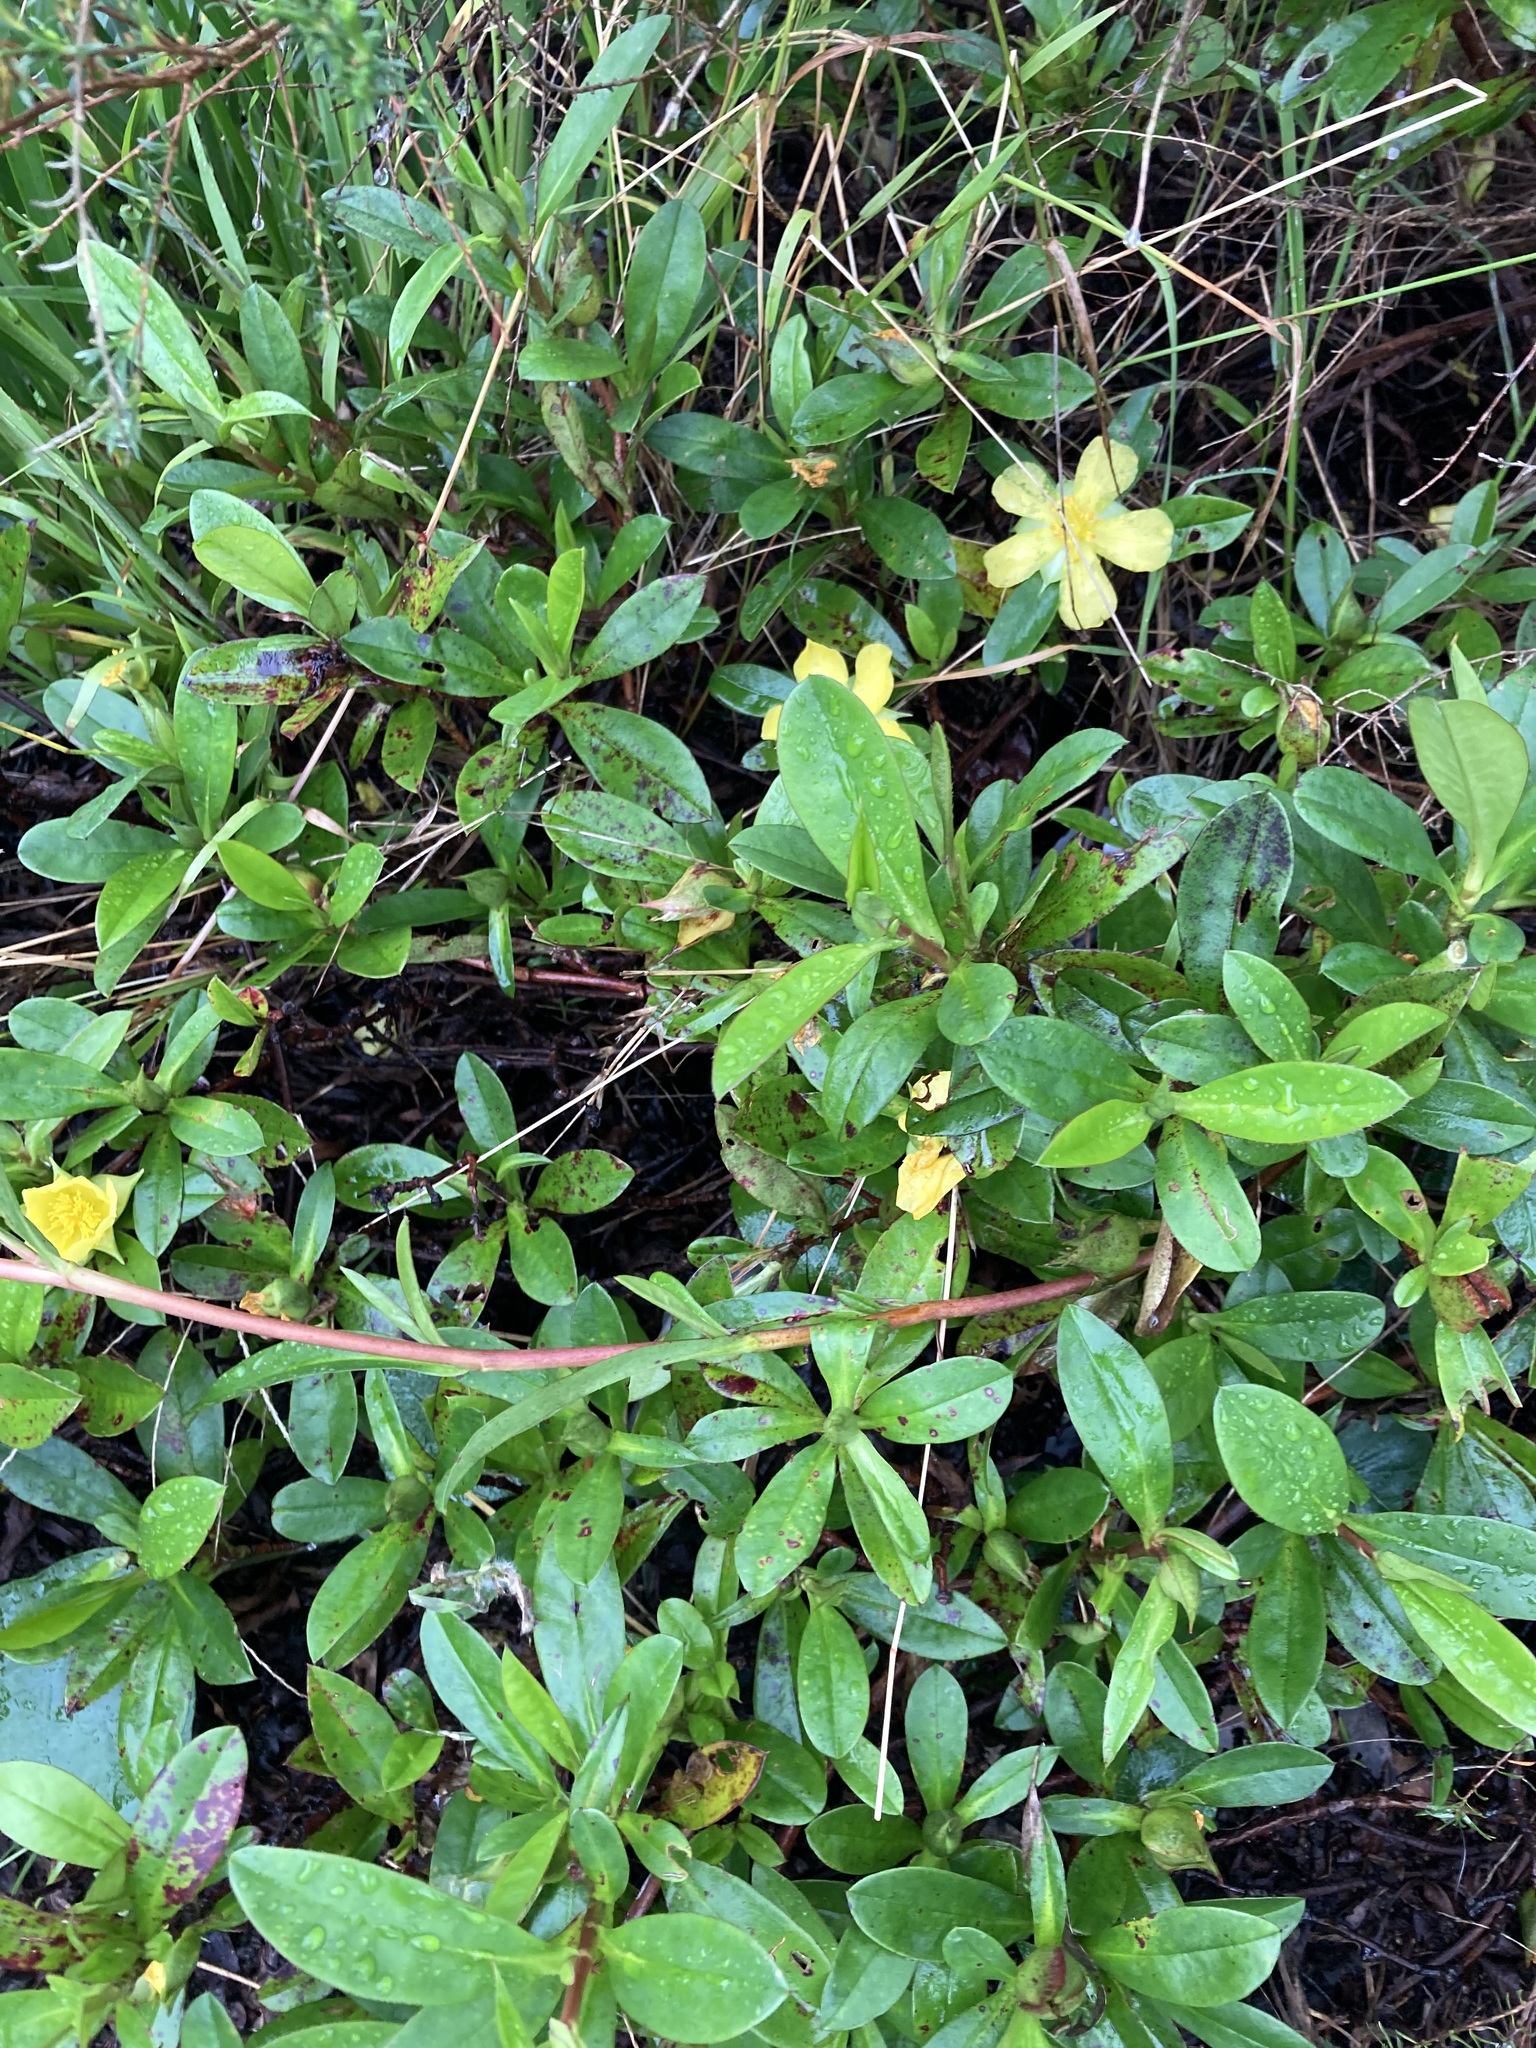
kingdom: Plantae
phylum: Tracheophyta
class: Magnoliopsida
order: Dilleniales
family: Dilleniaceae
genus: Hibbertia
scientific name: Hibbertia scandens
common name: Climbing guinea-flower
